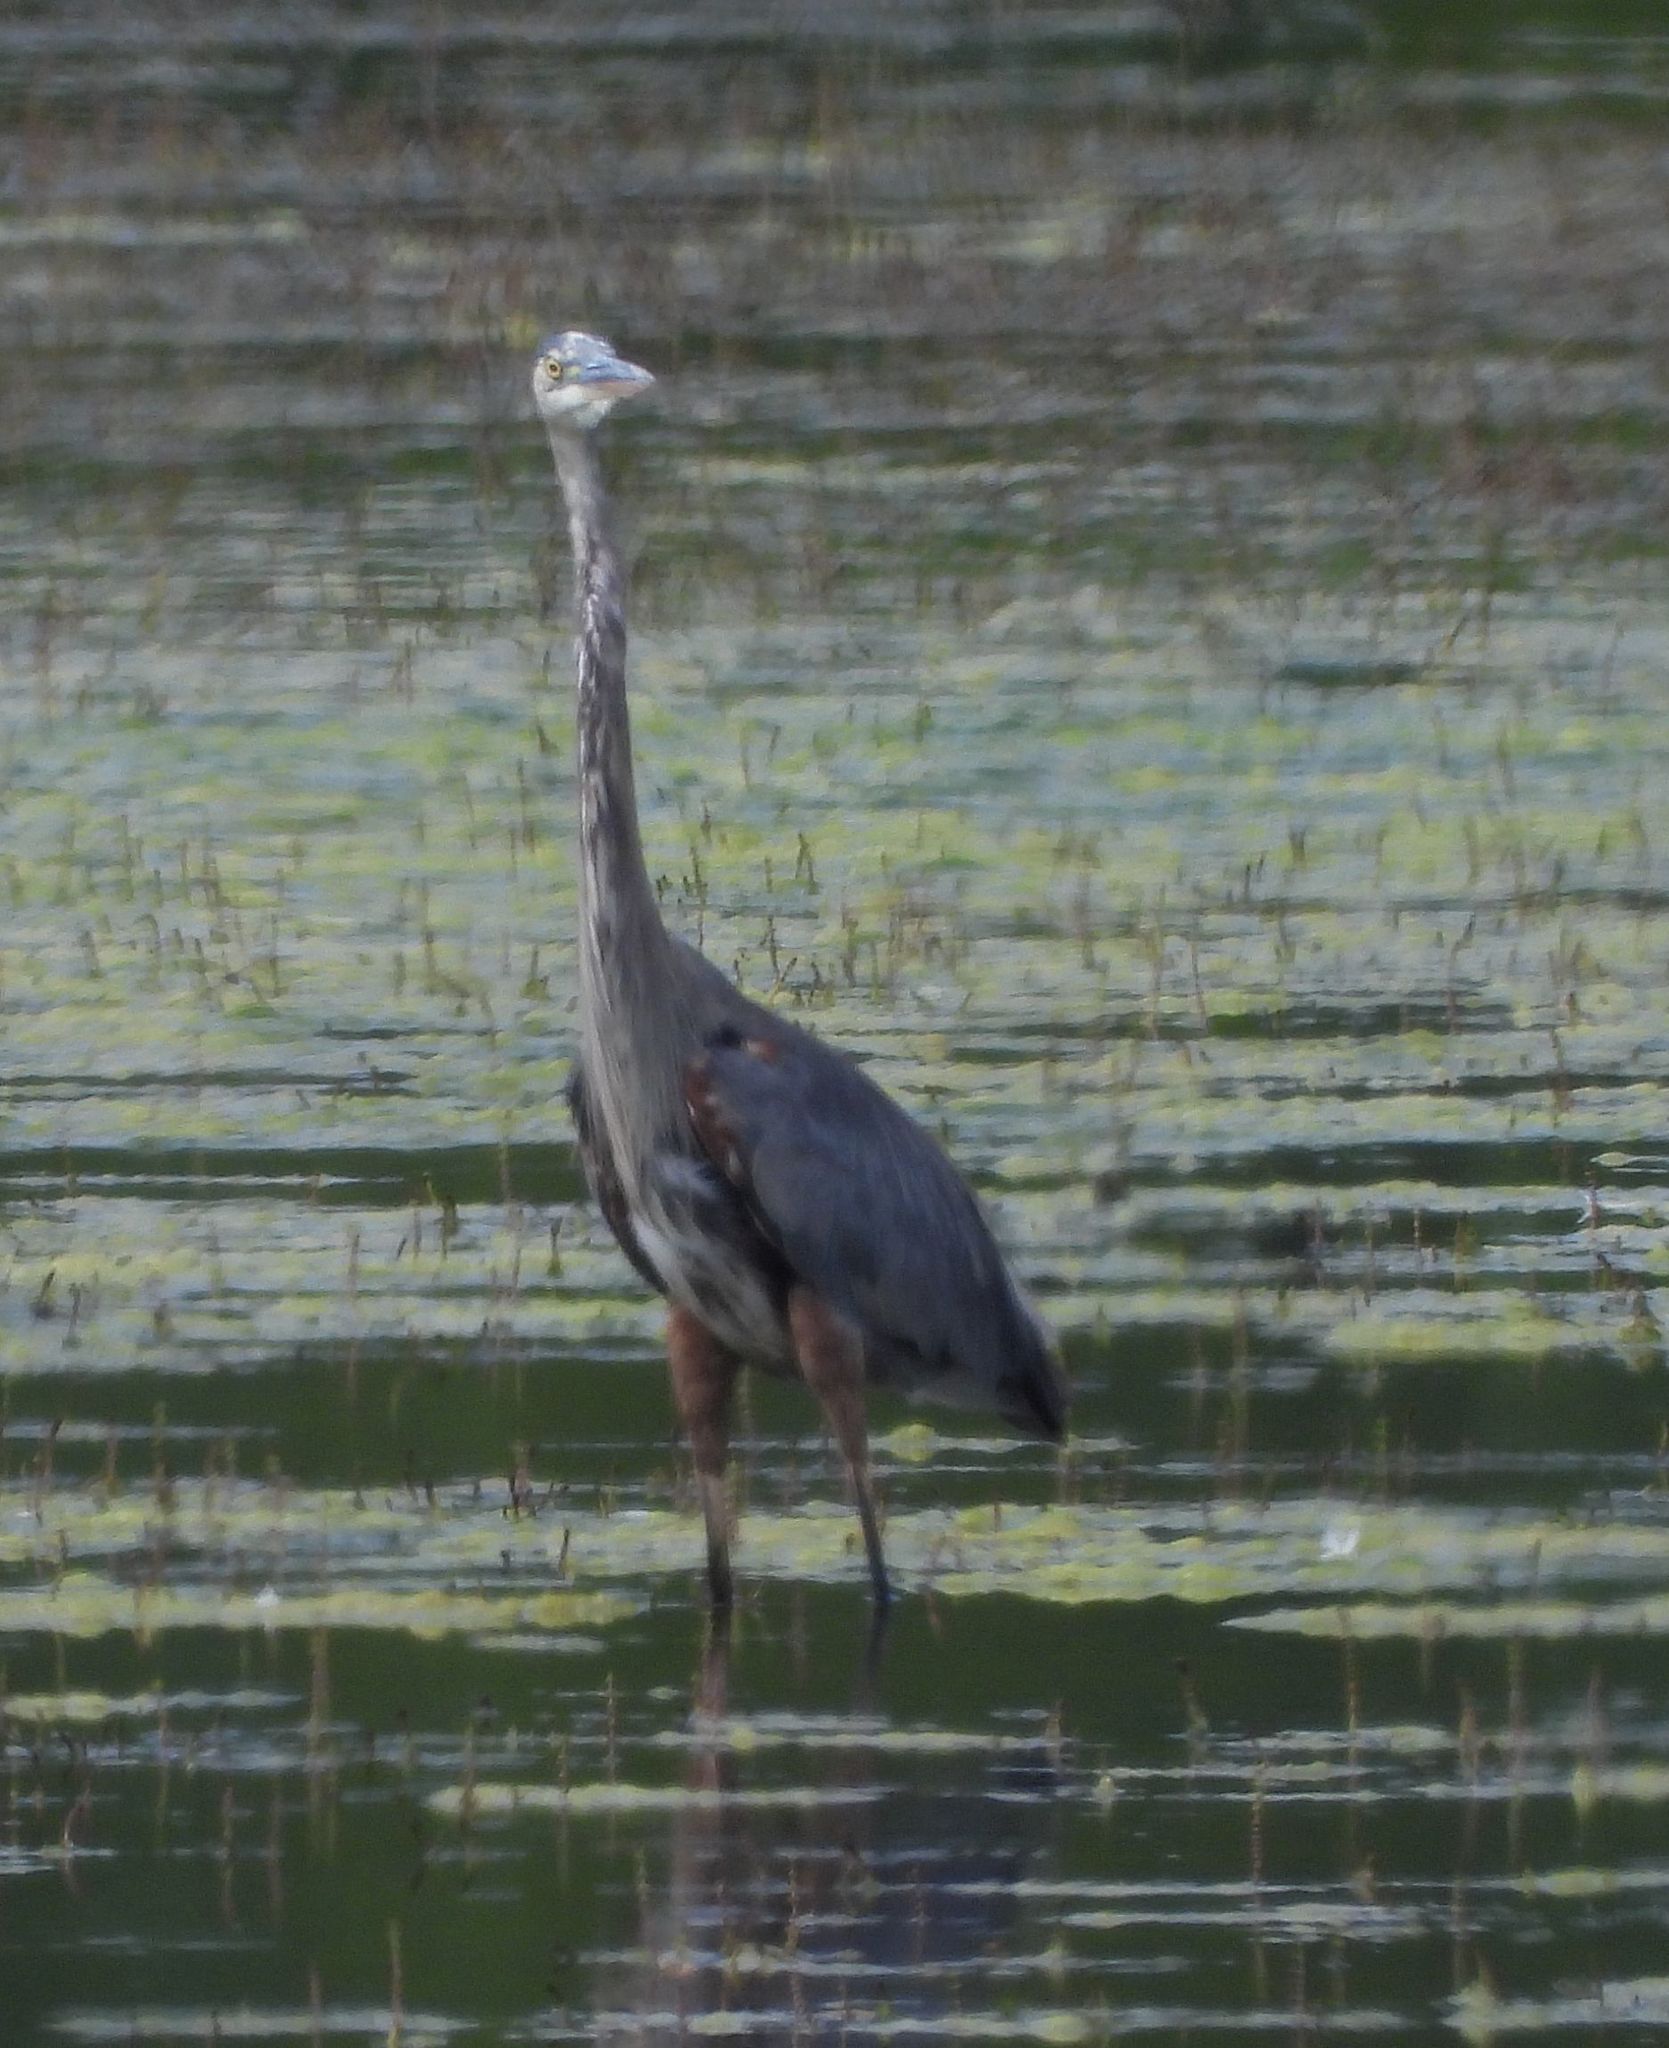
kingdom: Animalia
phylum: Chordata
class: Aves
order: Pelecaniformes
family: Ardeidae
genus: Ardea
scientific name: Ardea herodias
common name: Great blue heron
